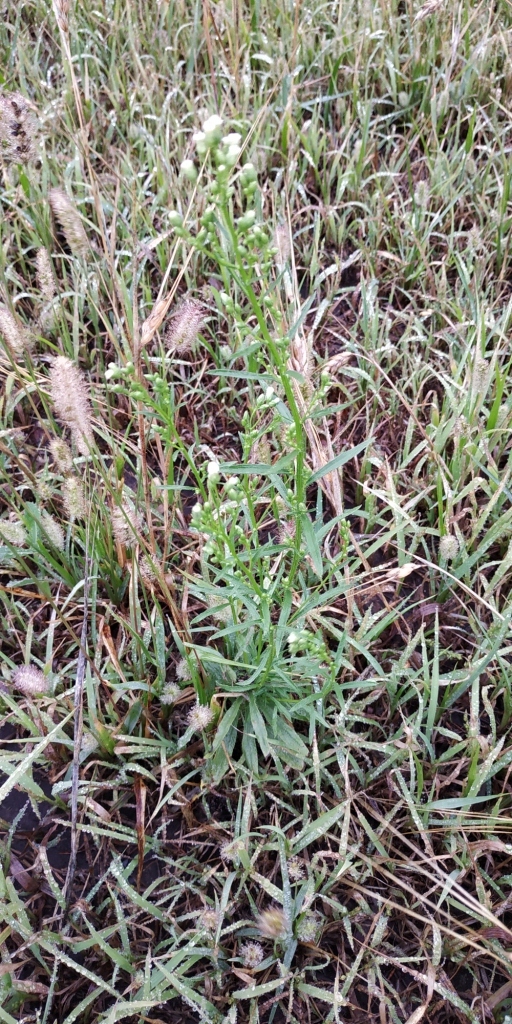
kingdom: Plantae
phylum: Tracheophyta
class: Magnoliopsida
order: Asterales
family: Asteraceae
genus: Erigeron
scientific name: Erigeron canadensis
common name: Canadian fleabane
